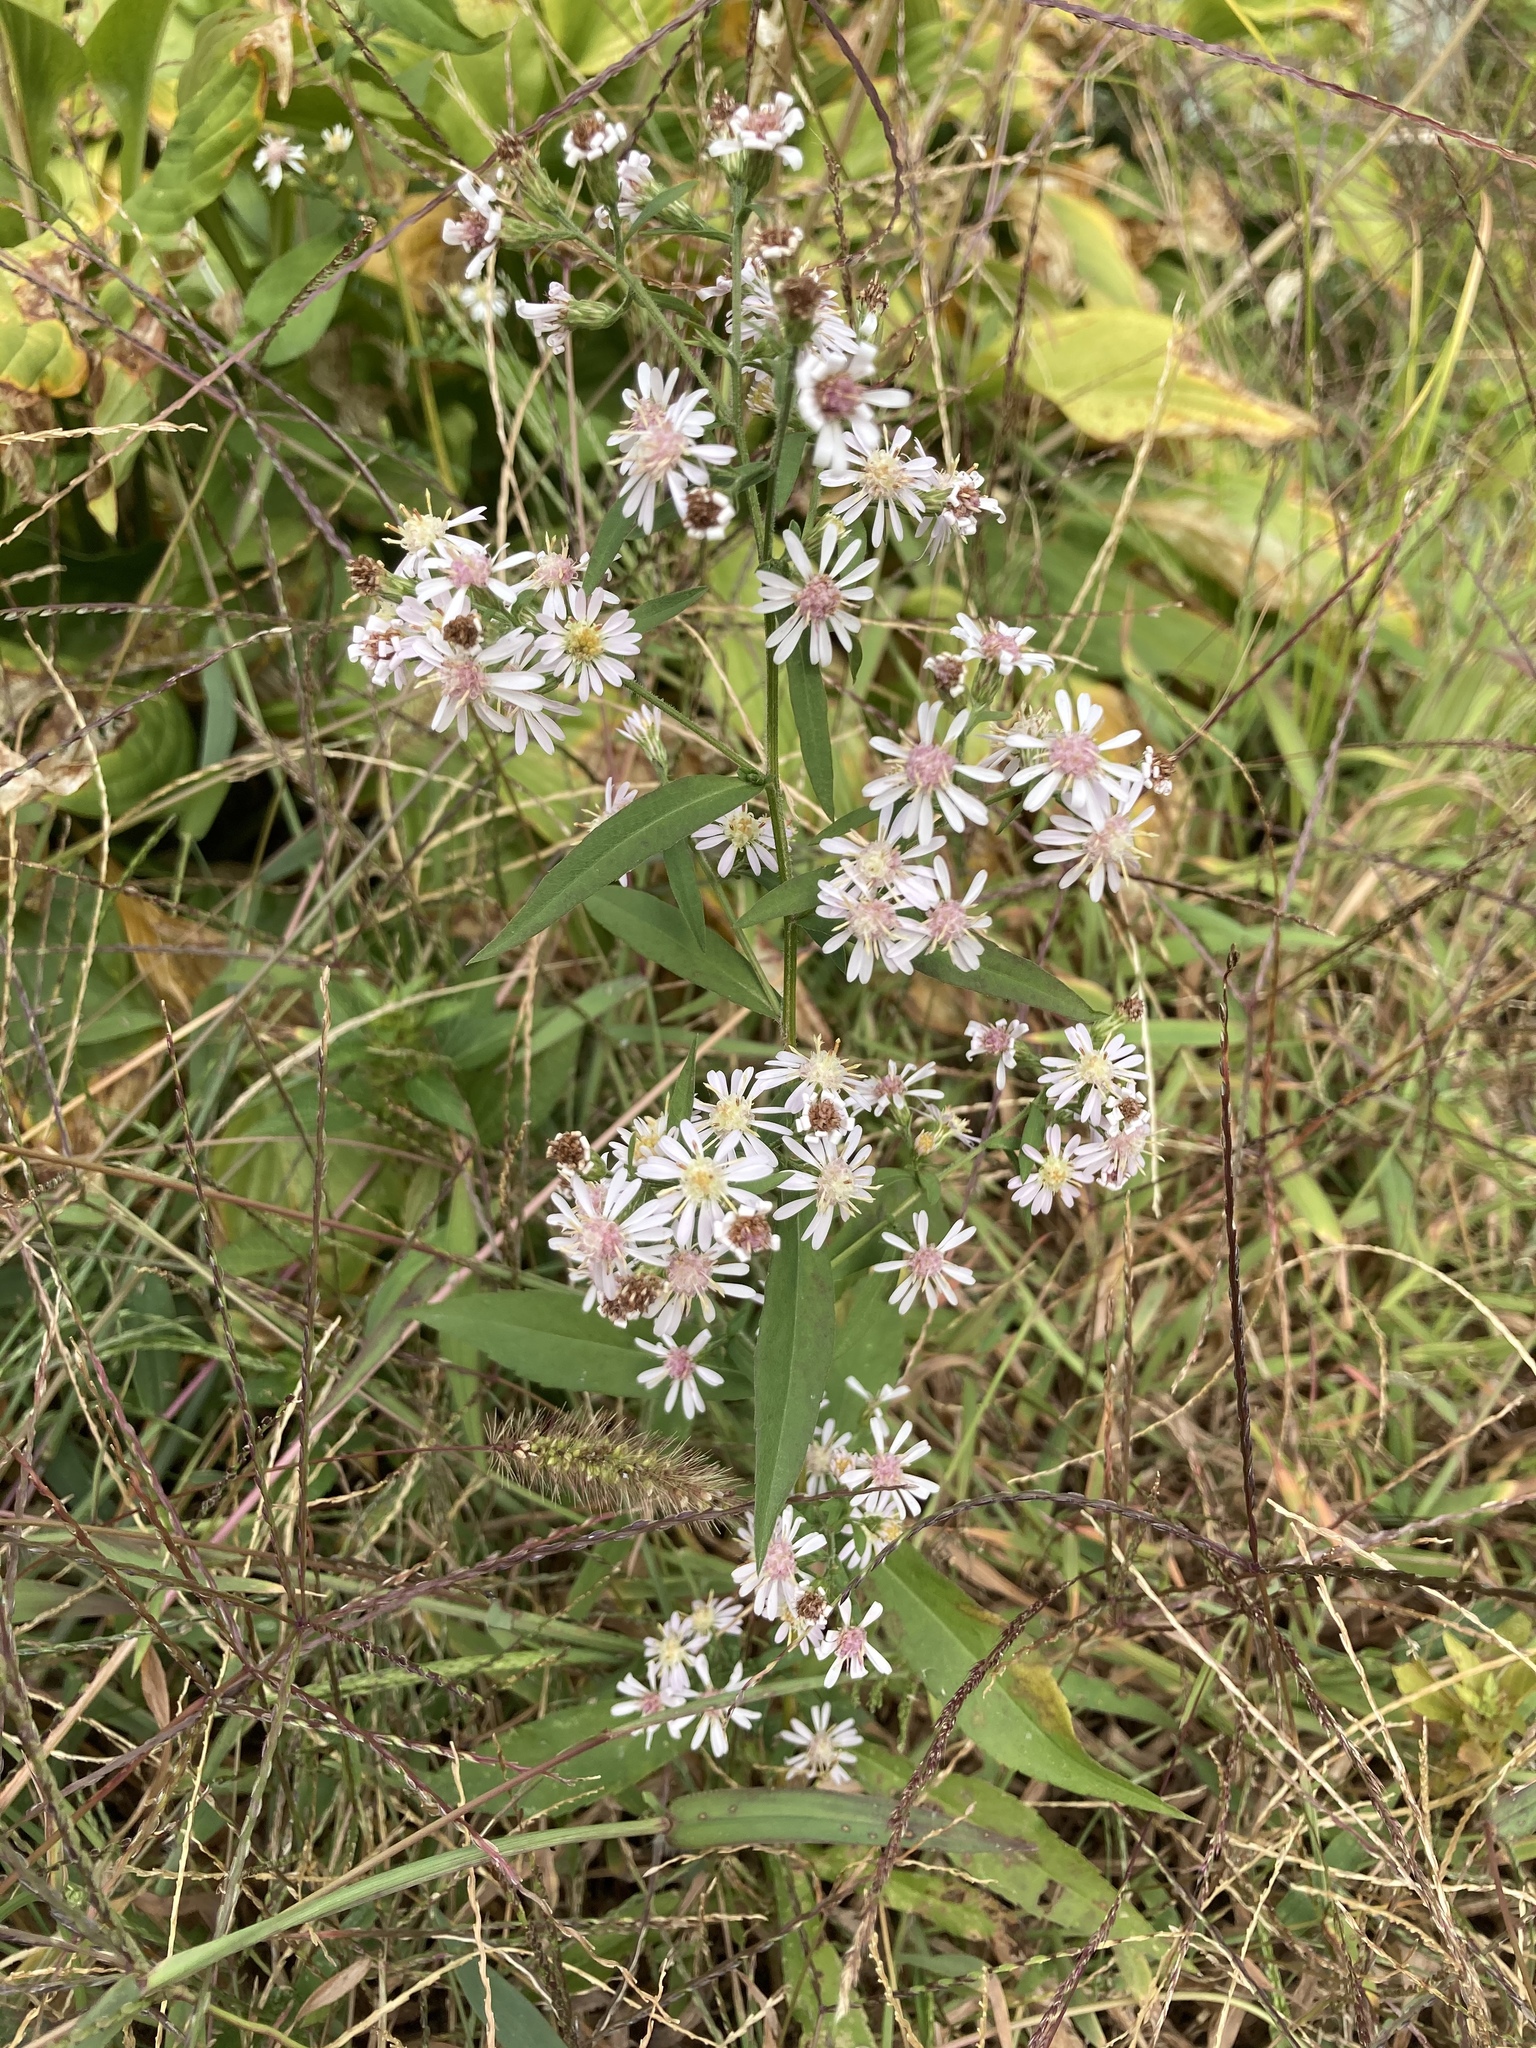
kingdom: Plantae
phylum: Tracheophyta
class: Magnoliopsida
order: Asterales
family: Asteraceae
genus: Symphyotrichum
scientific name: Symphyotrichum lateriflorum
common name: Calico aster
